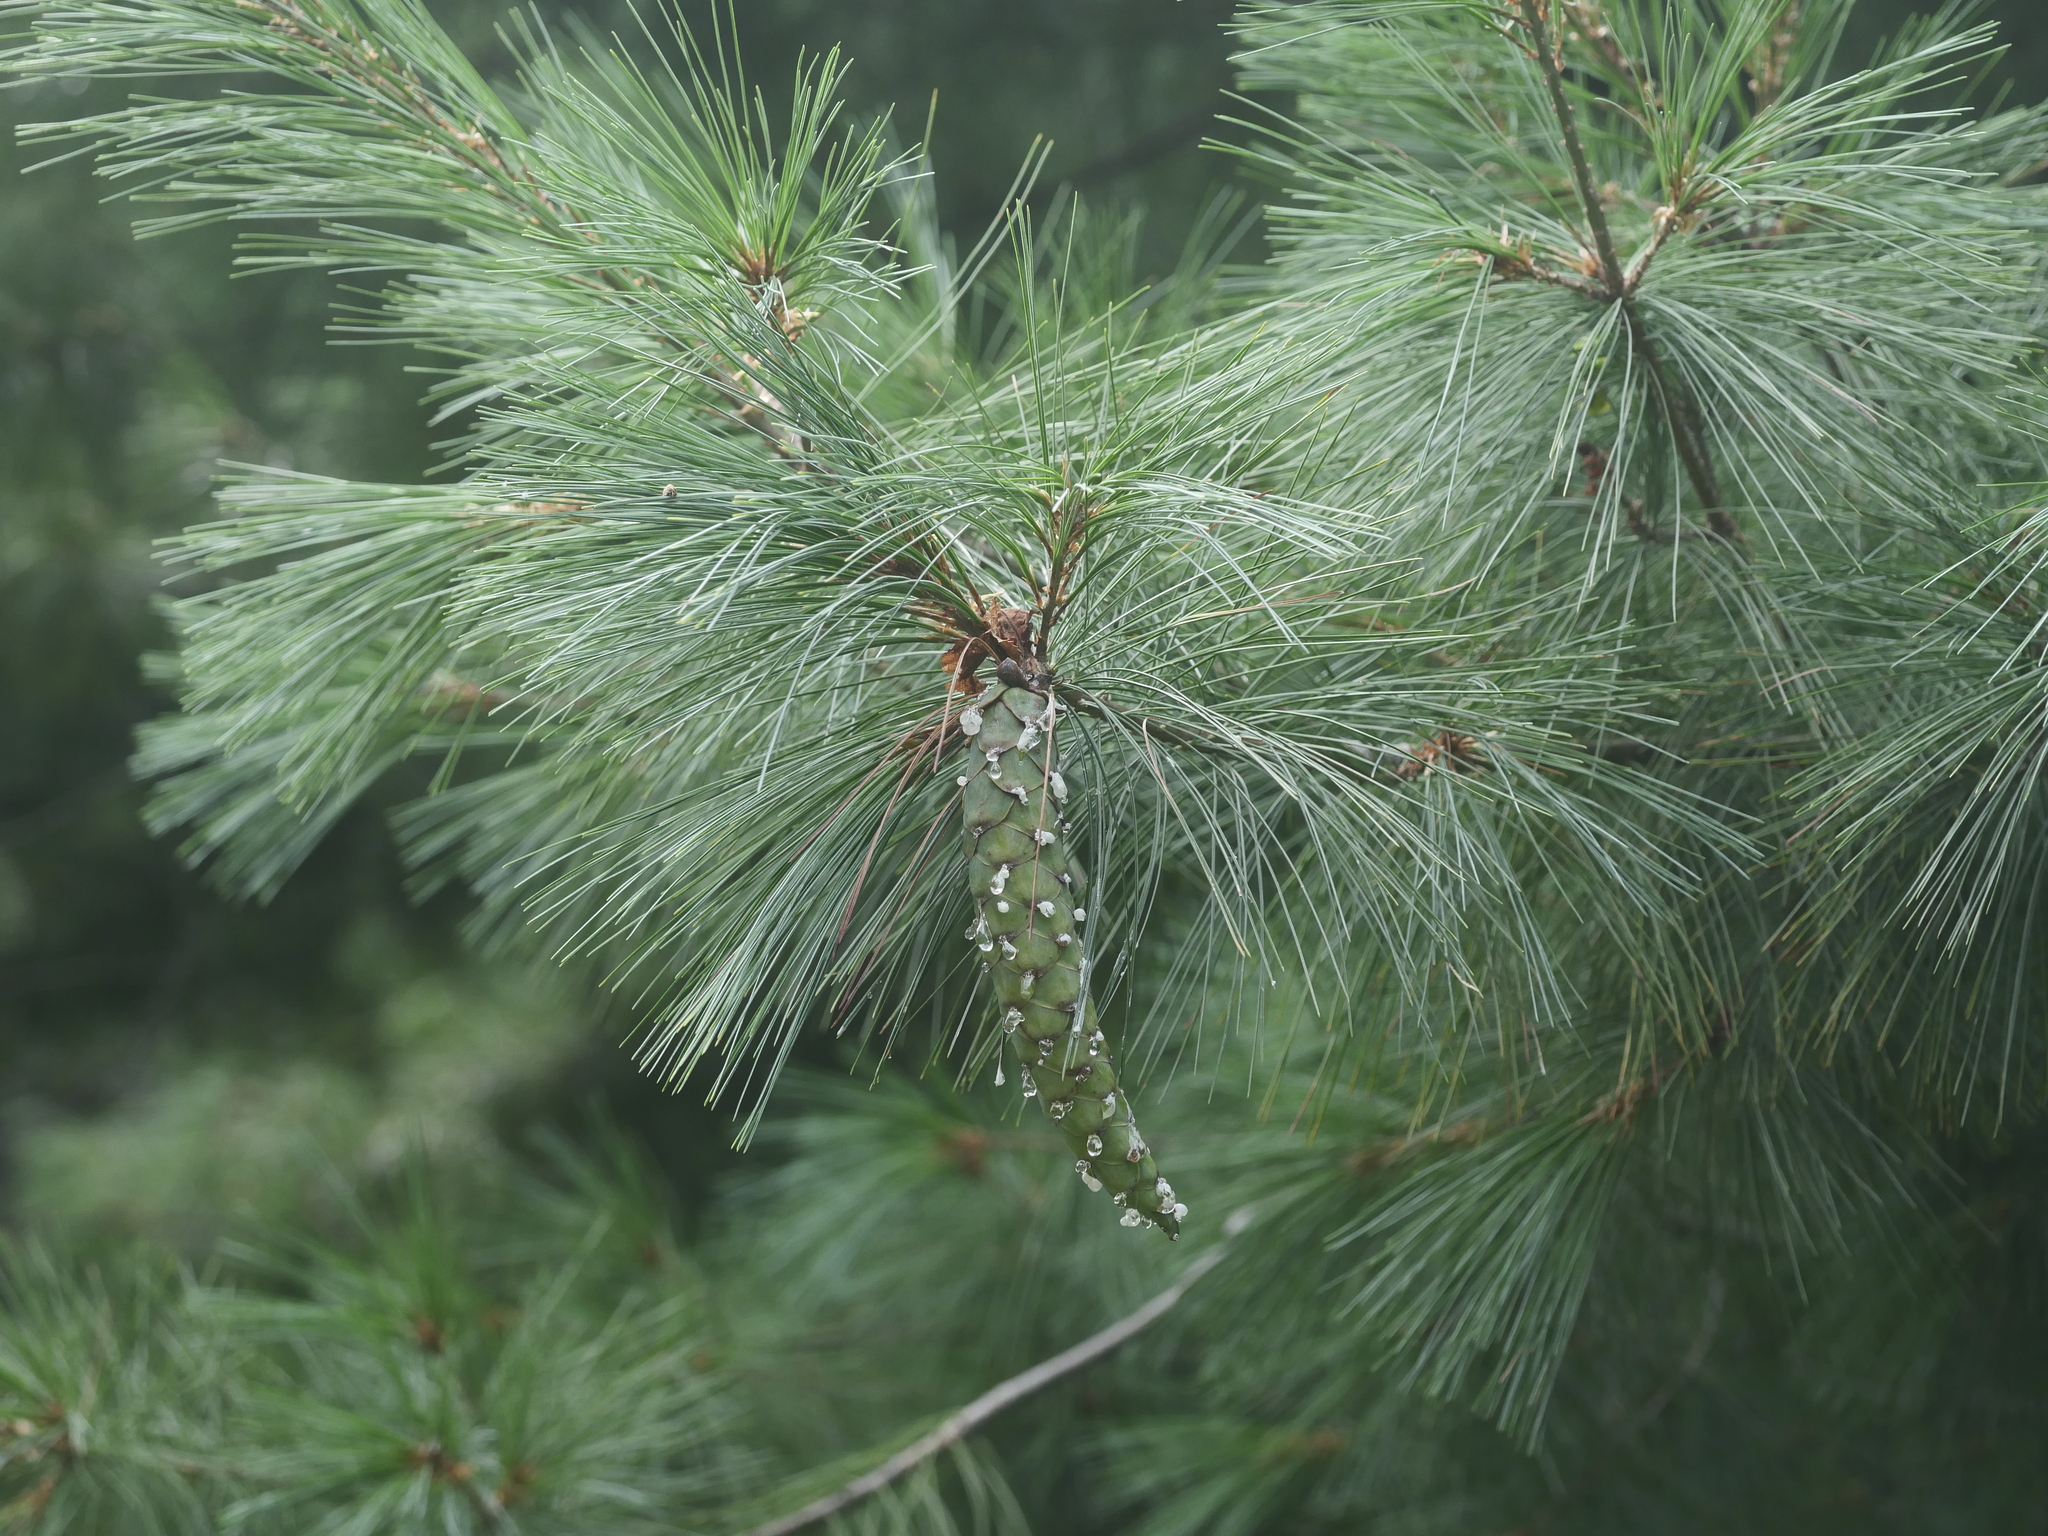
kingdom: Plantae
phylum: Tracheophyta
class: Pinopsida
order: Pinales
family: Pinaceae
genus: Pinus
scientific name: Pinus strobus
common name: Weymouth pine
